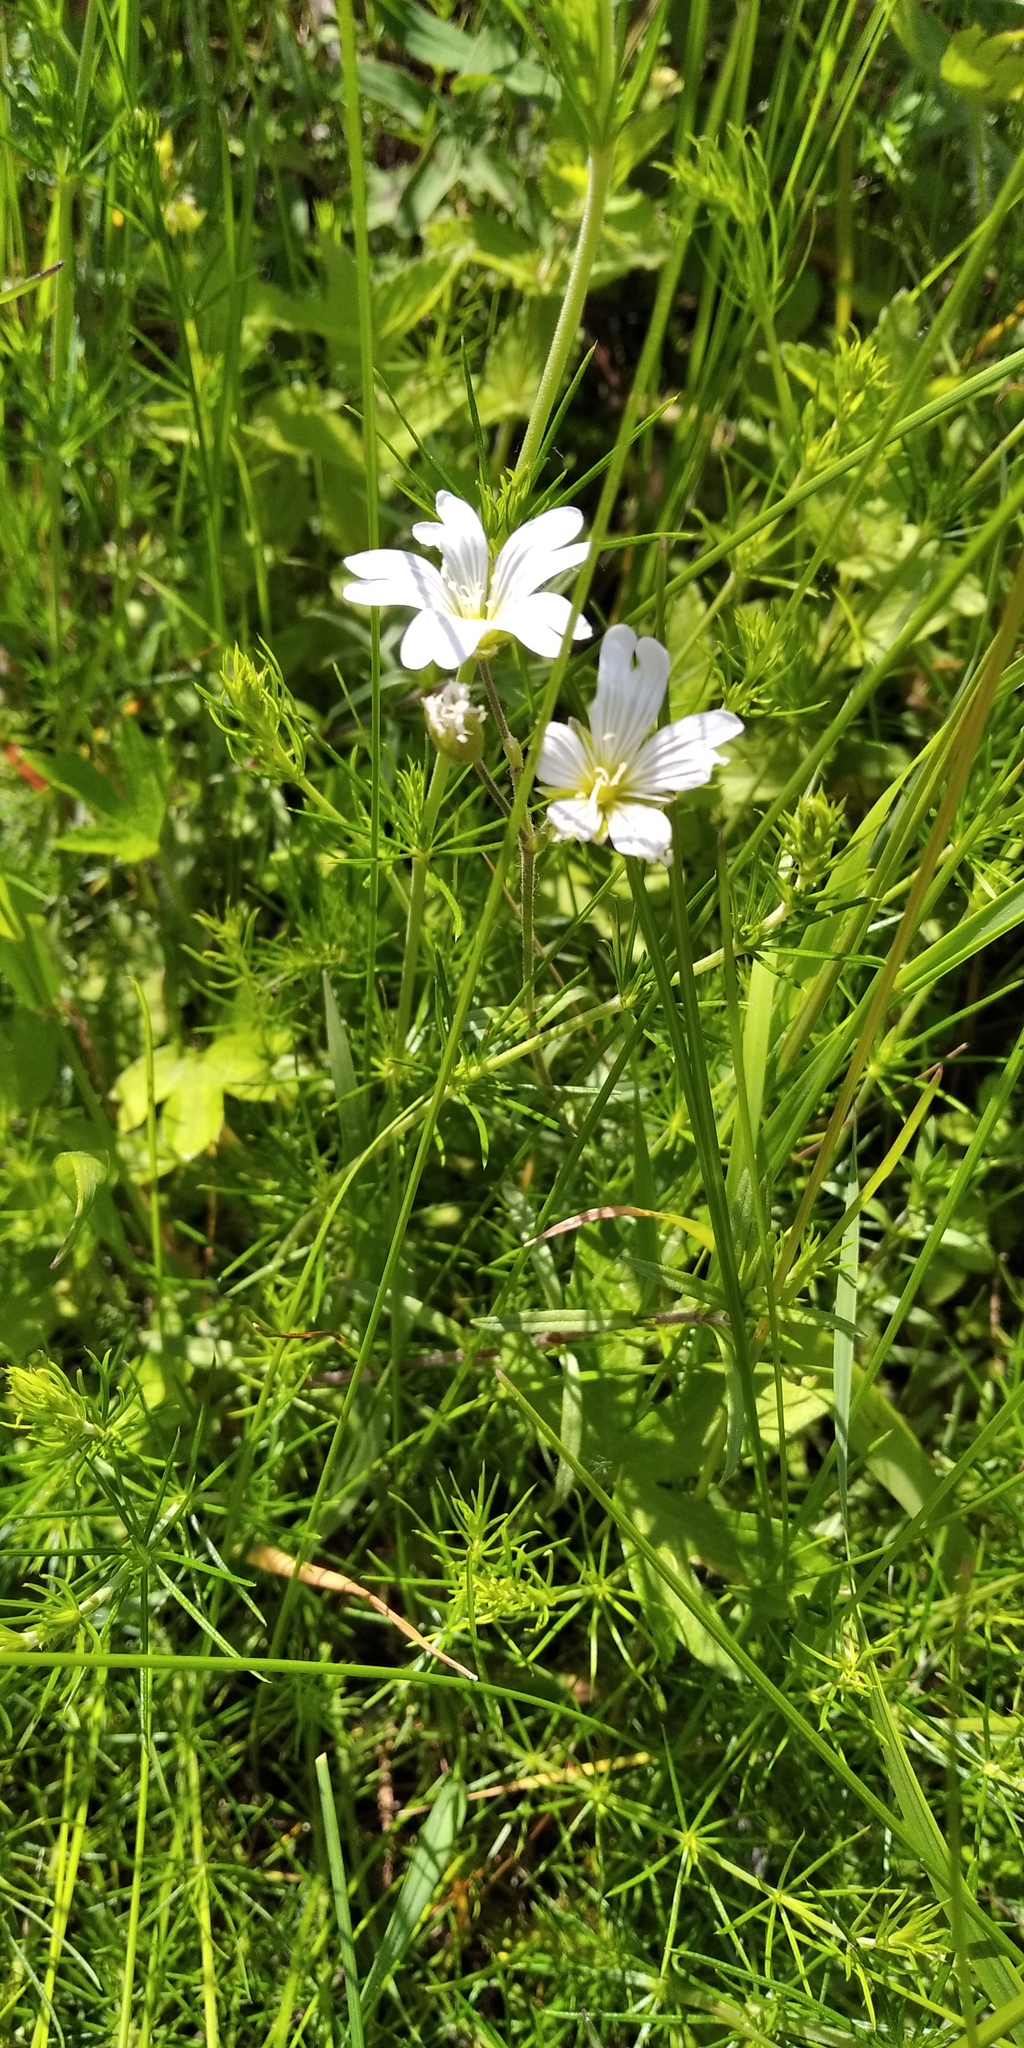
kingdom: Plantae
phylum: Tracheophyta
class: Magnoliopsida
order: Caryophyllales
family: Caryophyllaceae
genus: Cerastium
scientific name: Cerastium arvense
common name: Field mouse-ear
